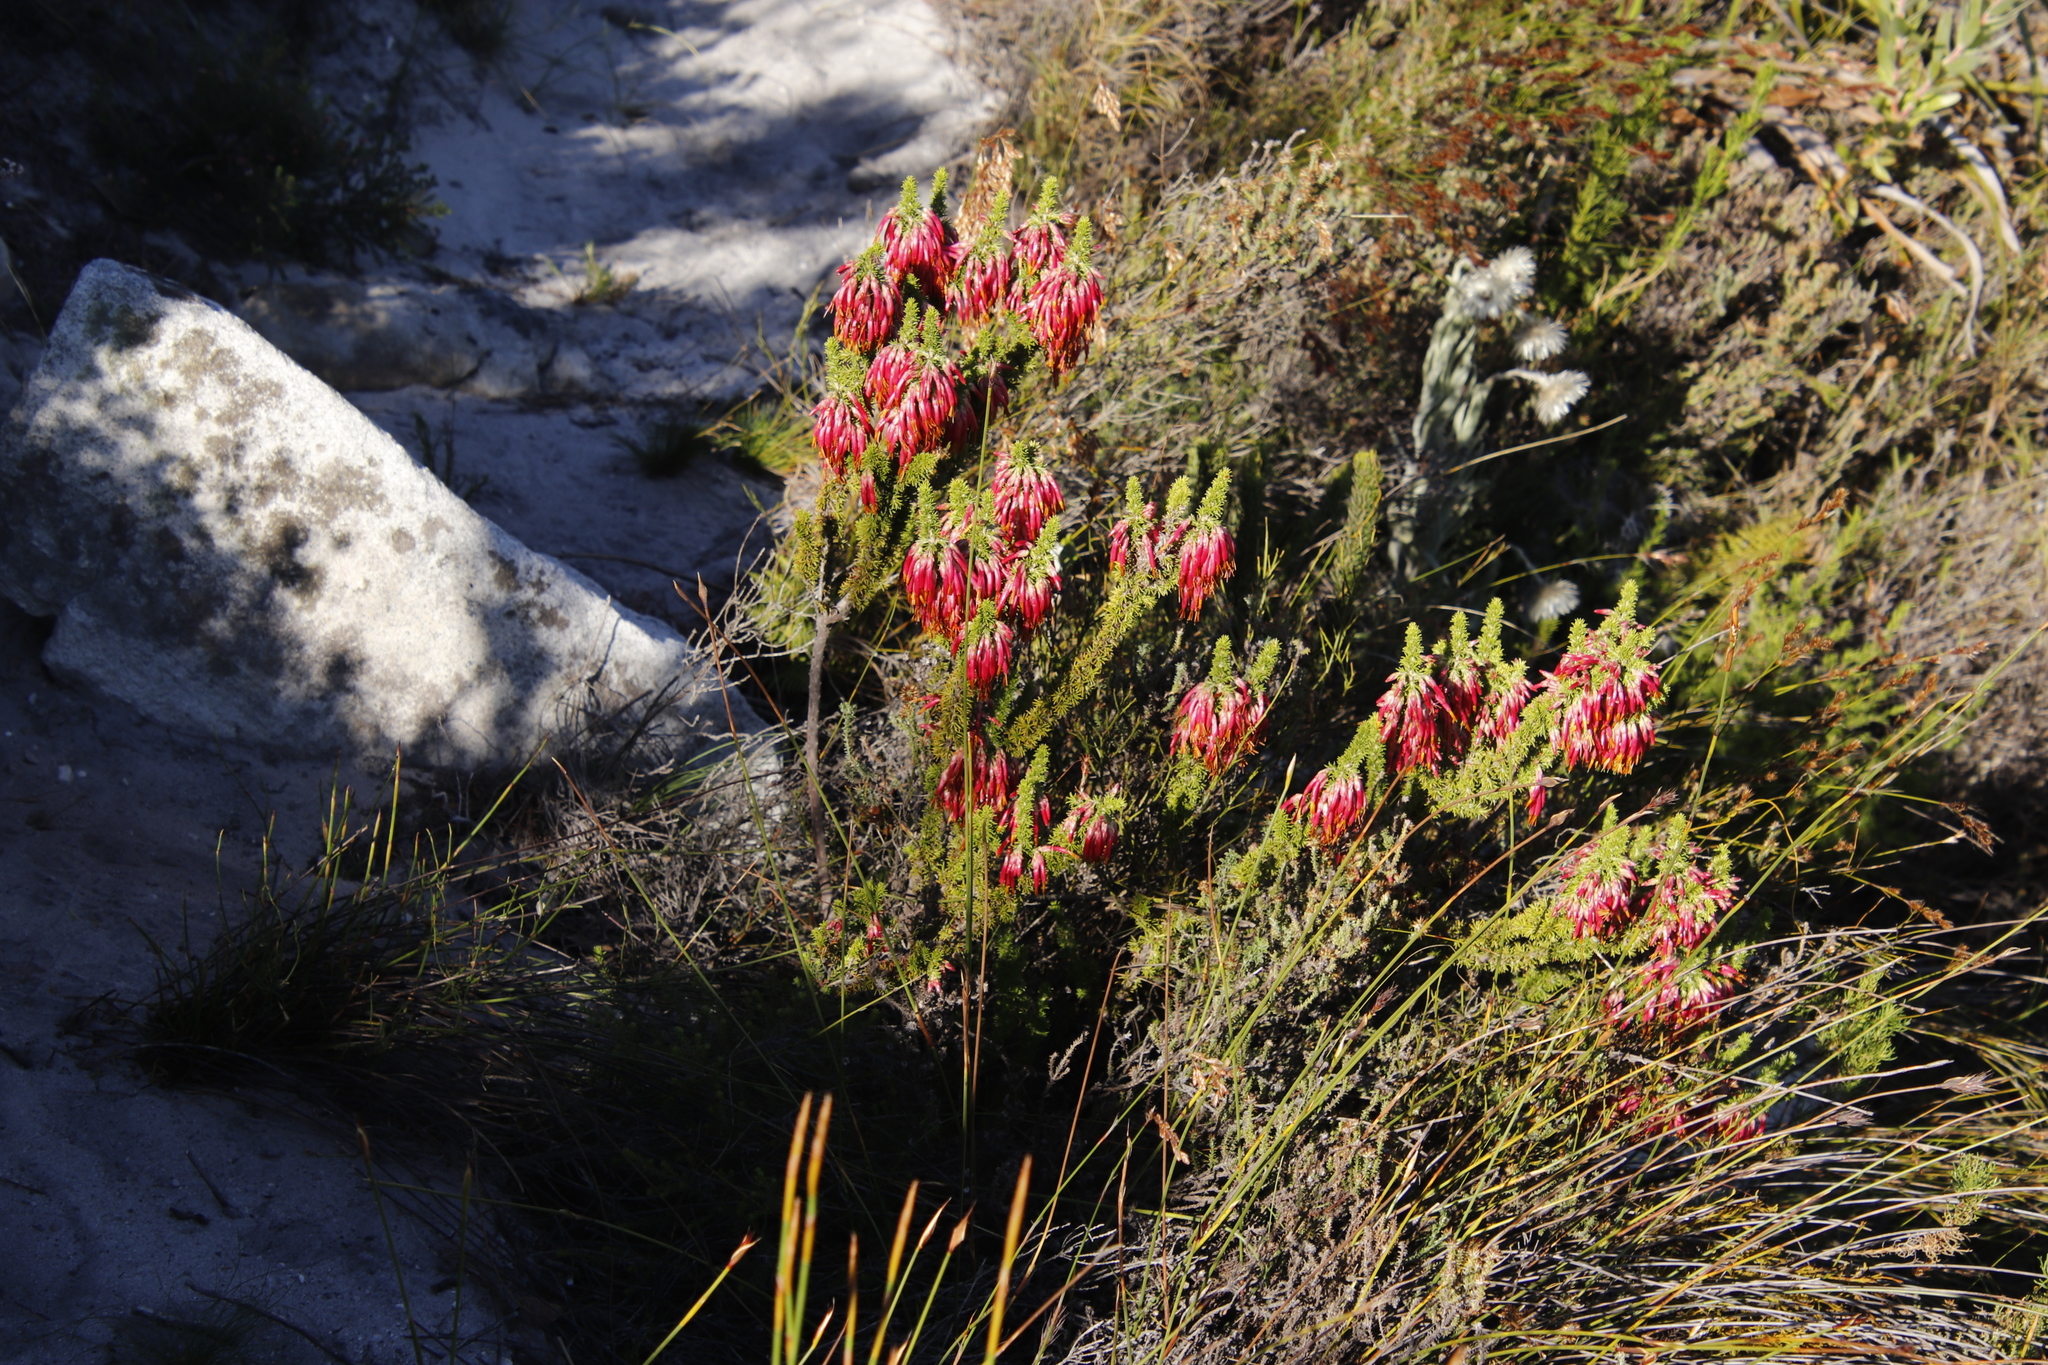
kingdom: Plantae
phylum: Tracheophyta
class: Magnoliopsida
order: Ericales
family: Ericaceae
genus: Erica
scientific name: Erica coccinea
